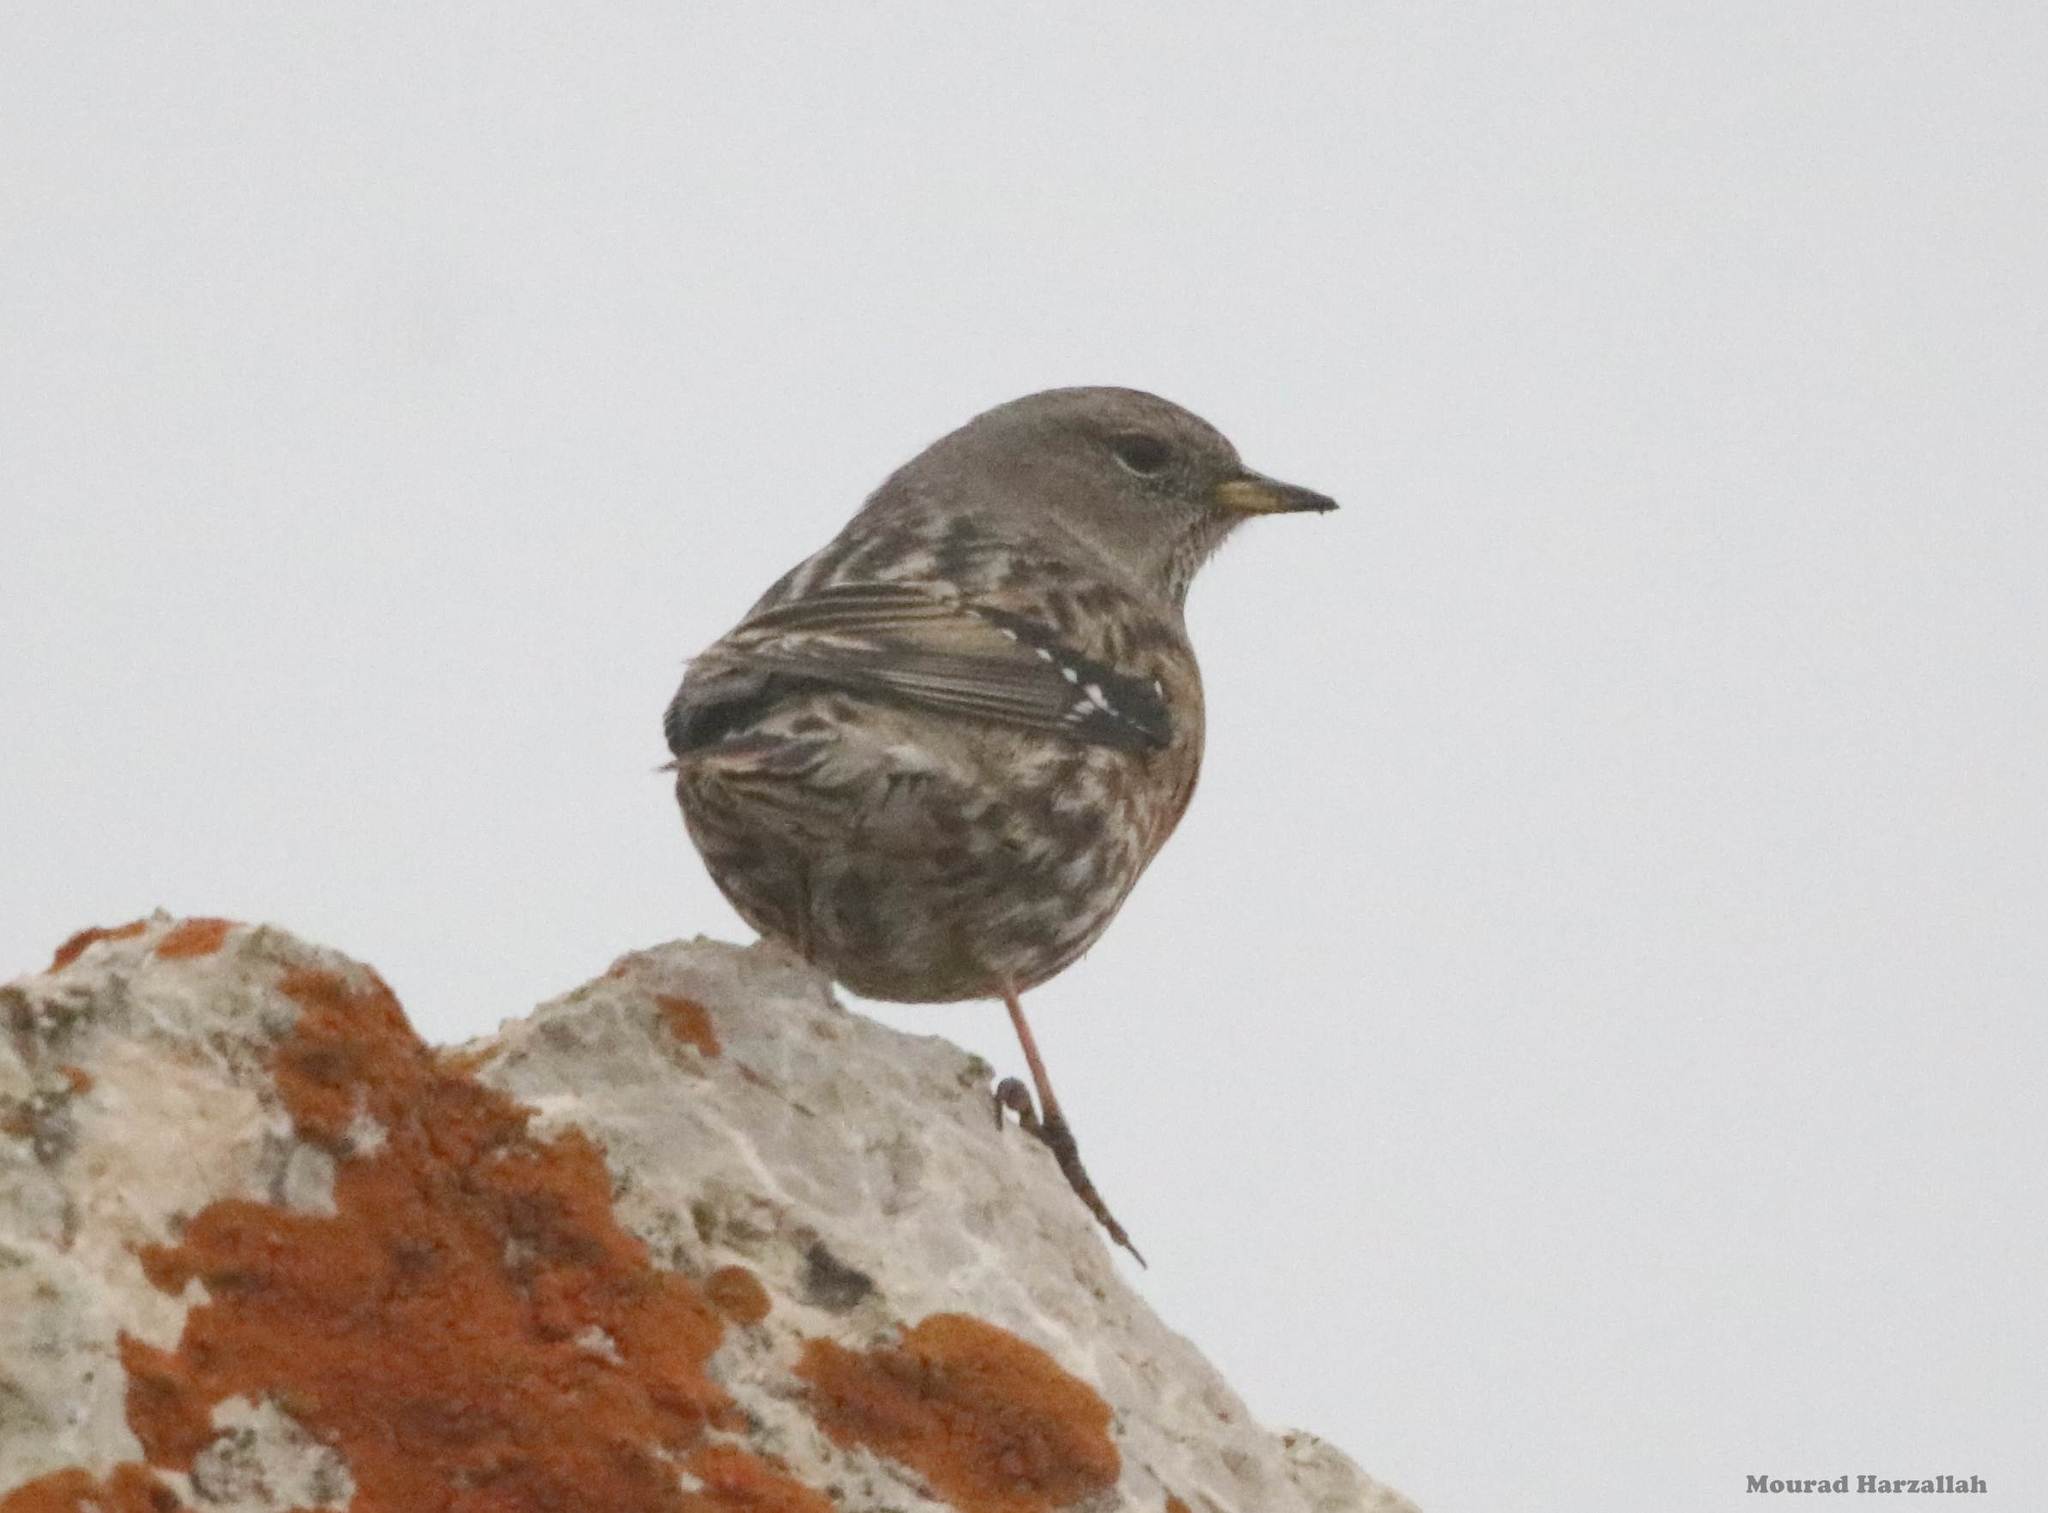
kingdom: Animalia
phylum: Chordata
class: Aves
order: Passeriformes
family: Prunellidae
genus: Prunella
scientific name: Prunella collaris
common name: Alpine accentor
